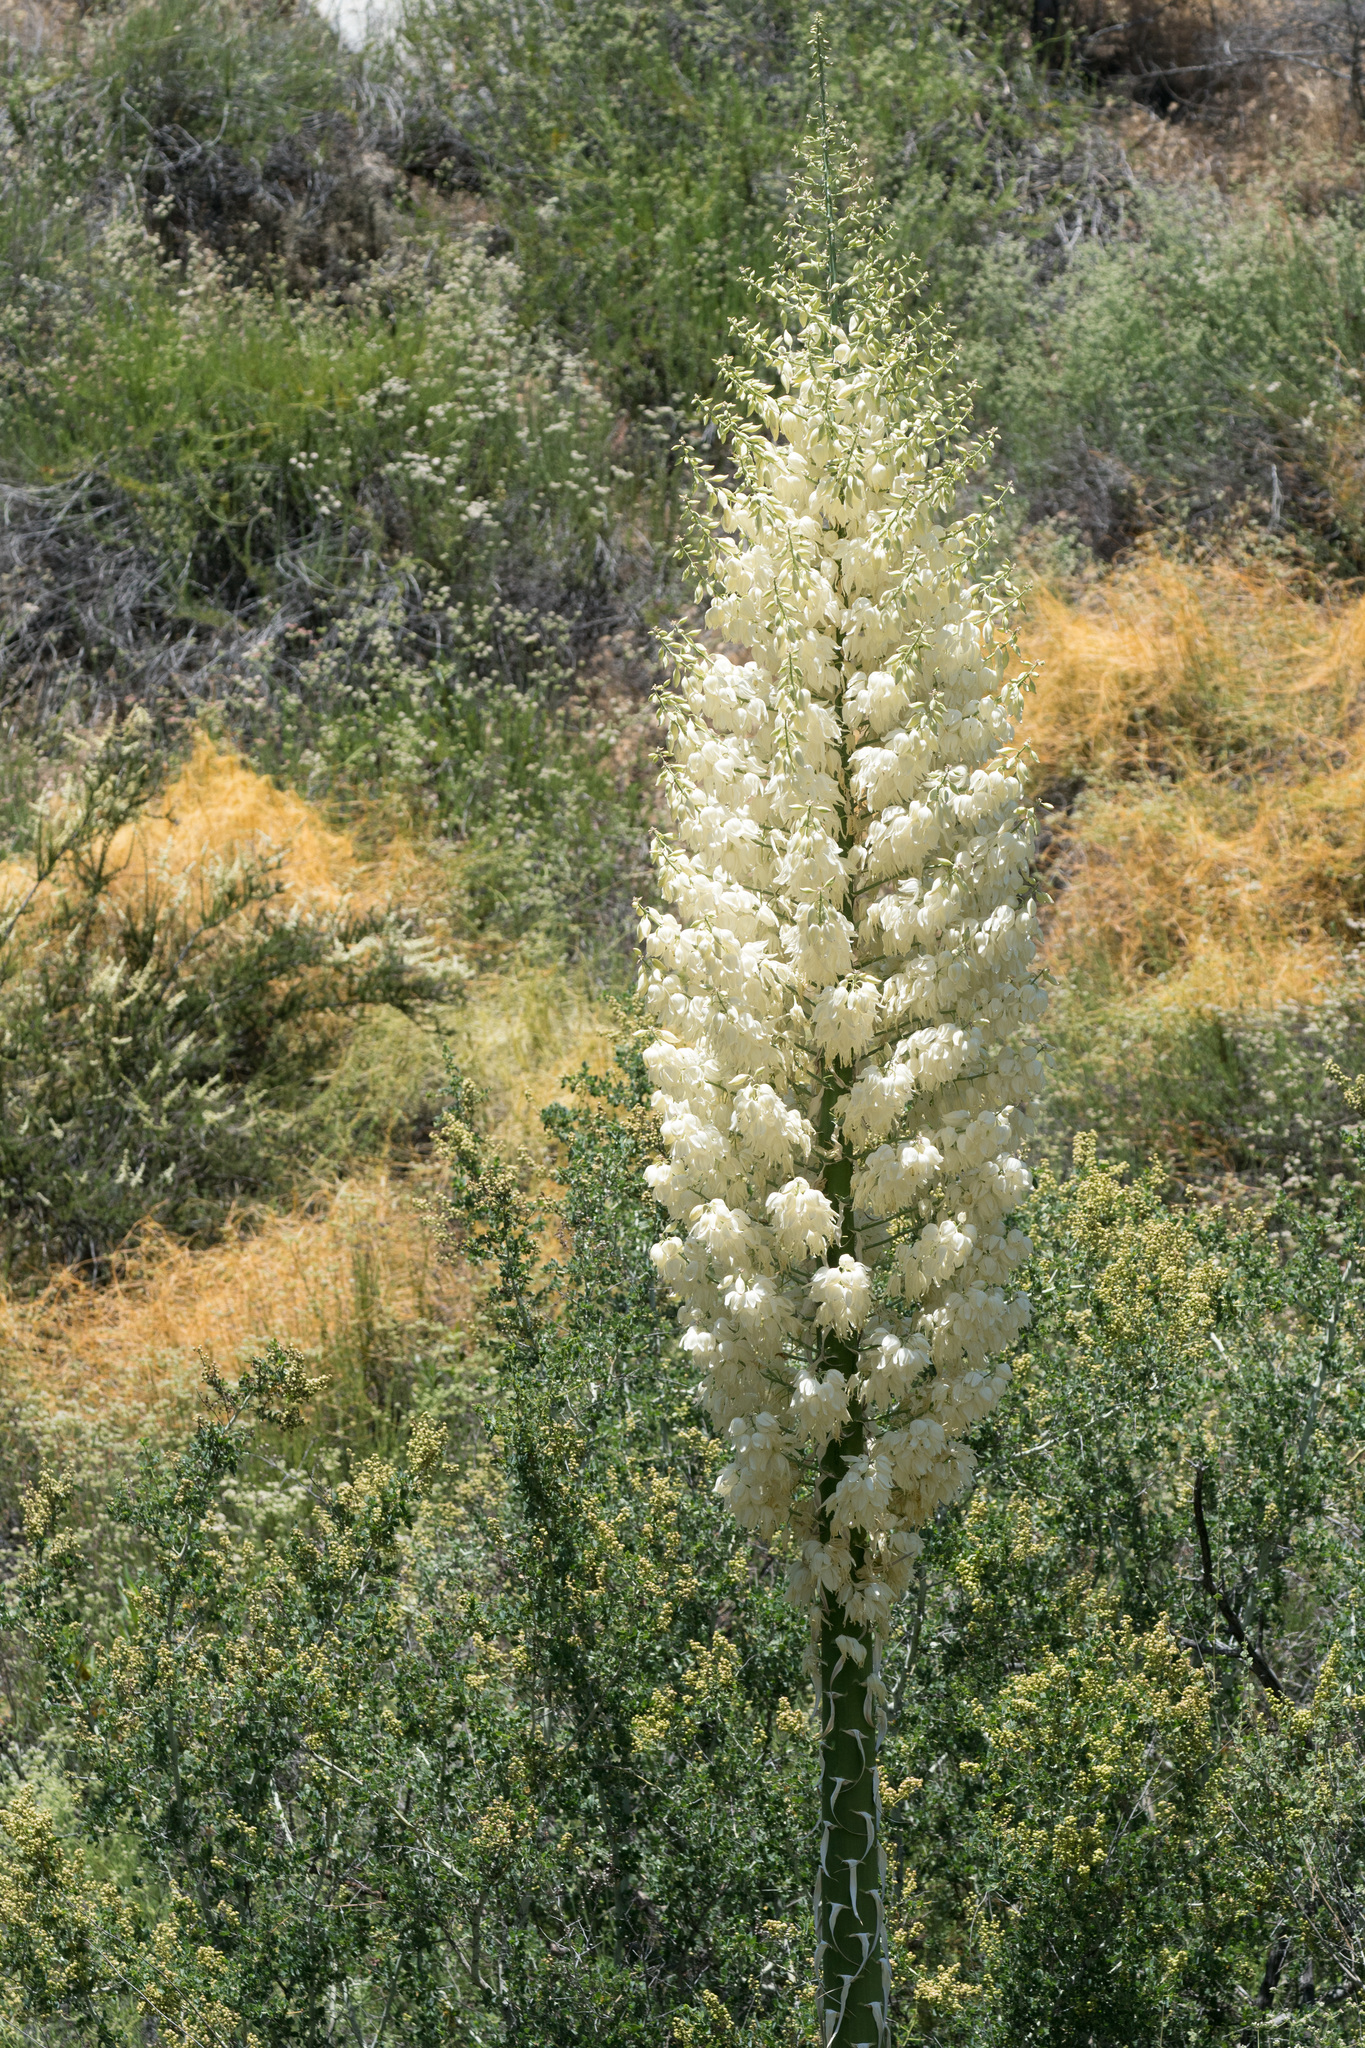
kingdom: Plantae
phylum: Tracheophyta
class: Liliopsida
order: Asparagales
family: Asparagaceae
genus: Hesperoyucca
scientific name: Hesperoyucca whipplei
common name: Our lord's-candle
